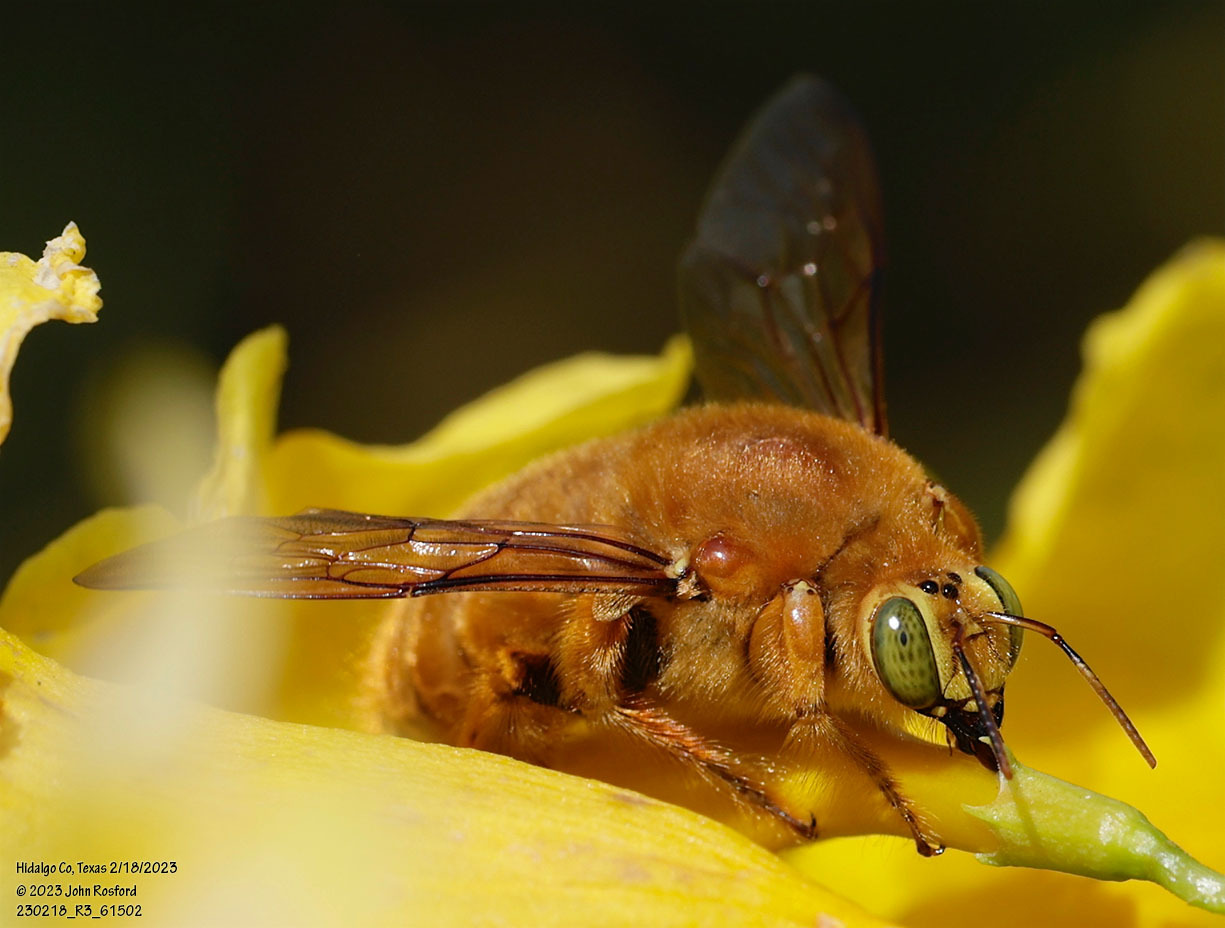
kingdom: Animalia
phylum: Arthropoda
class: Insecta
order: Hymenoptera
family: Apidae
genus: Xylocopa
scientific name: Xylocopa griswoldi
